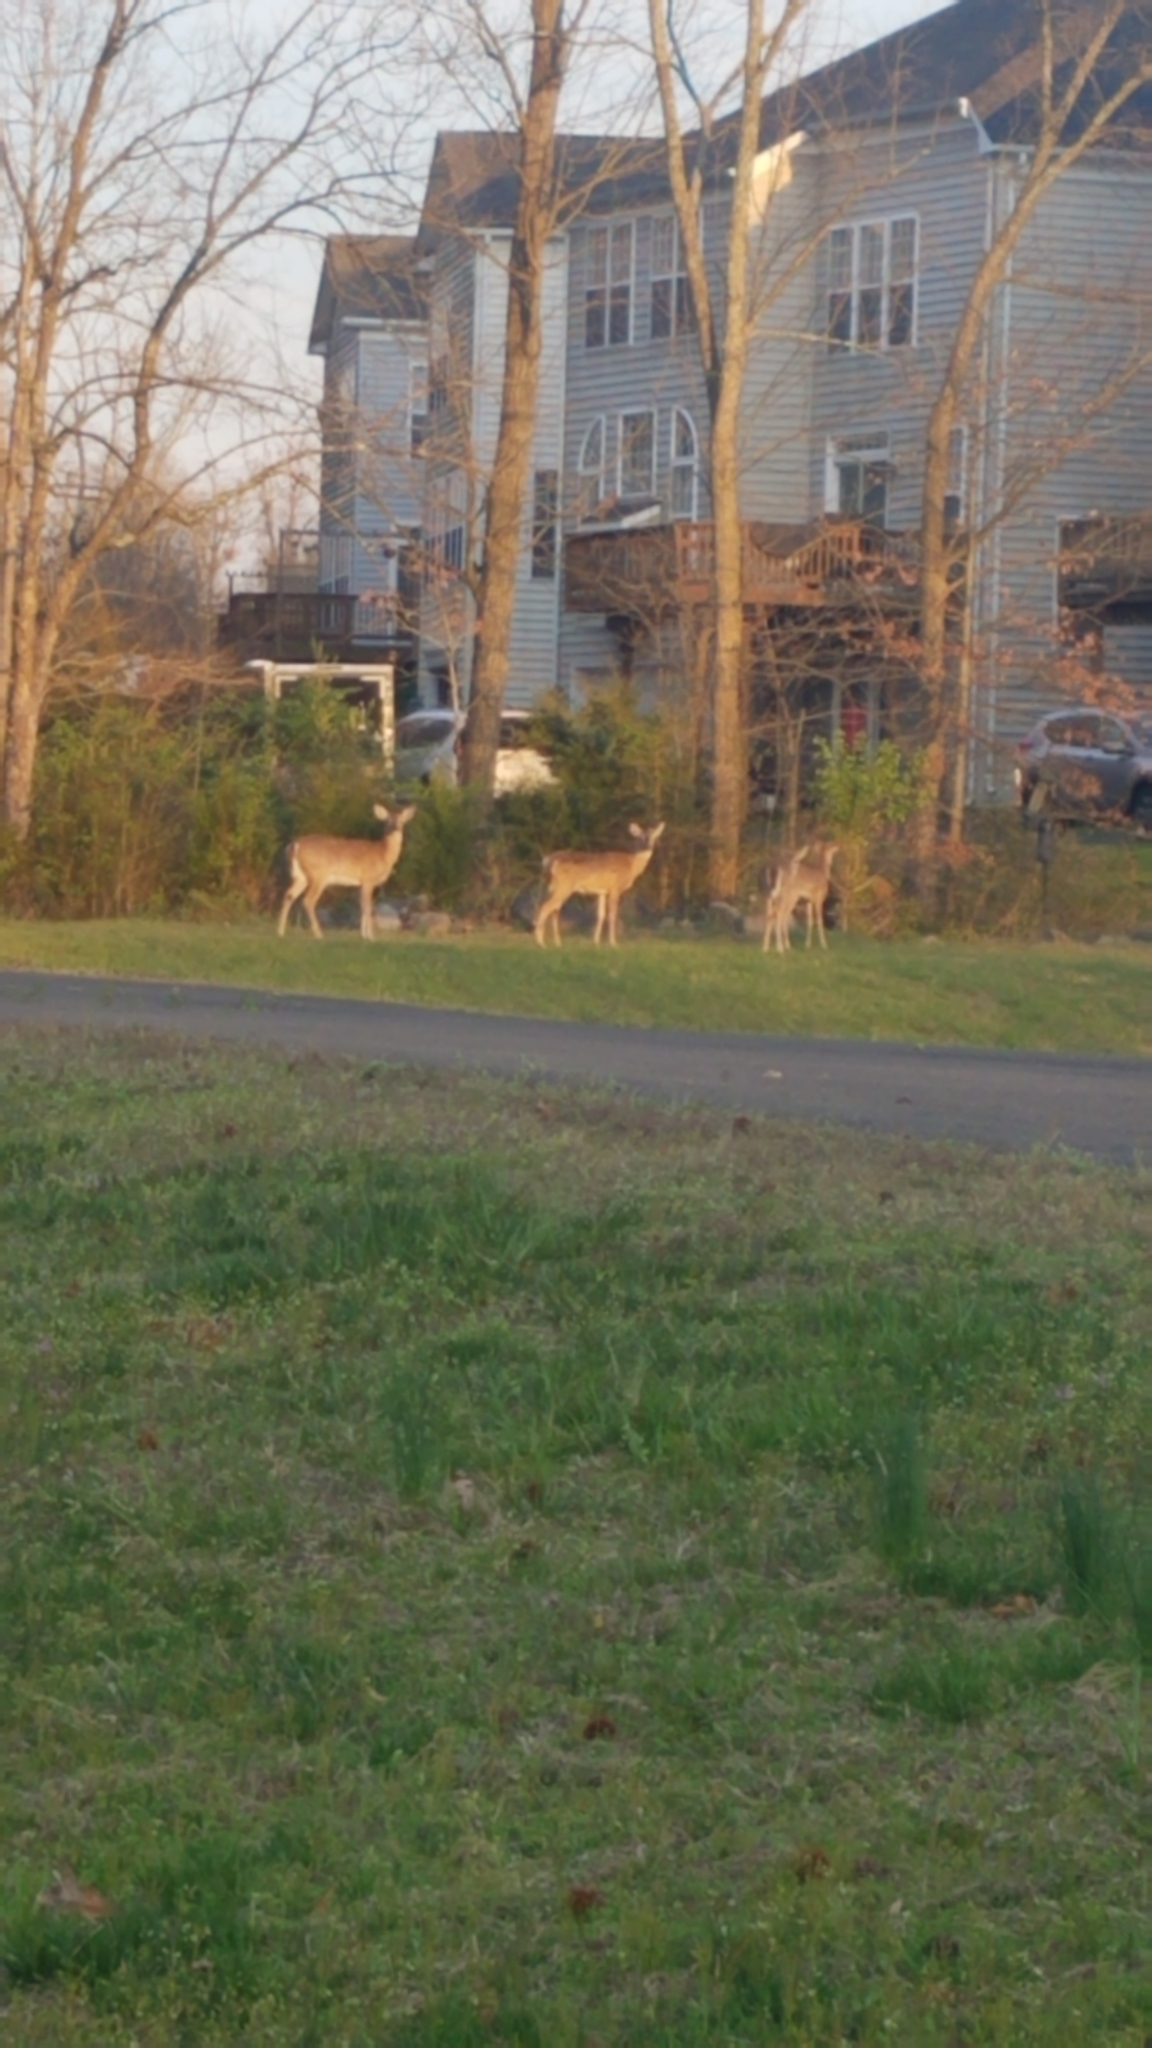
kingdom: Animalia
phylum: Chordata
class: Mammalia
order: Artiodactyla
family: Cervidae
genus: Odocoileus
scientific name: Odocoileus virginianus
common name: White-tailed deer
